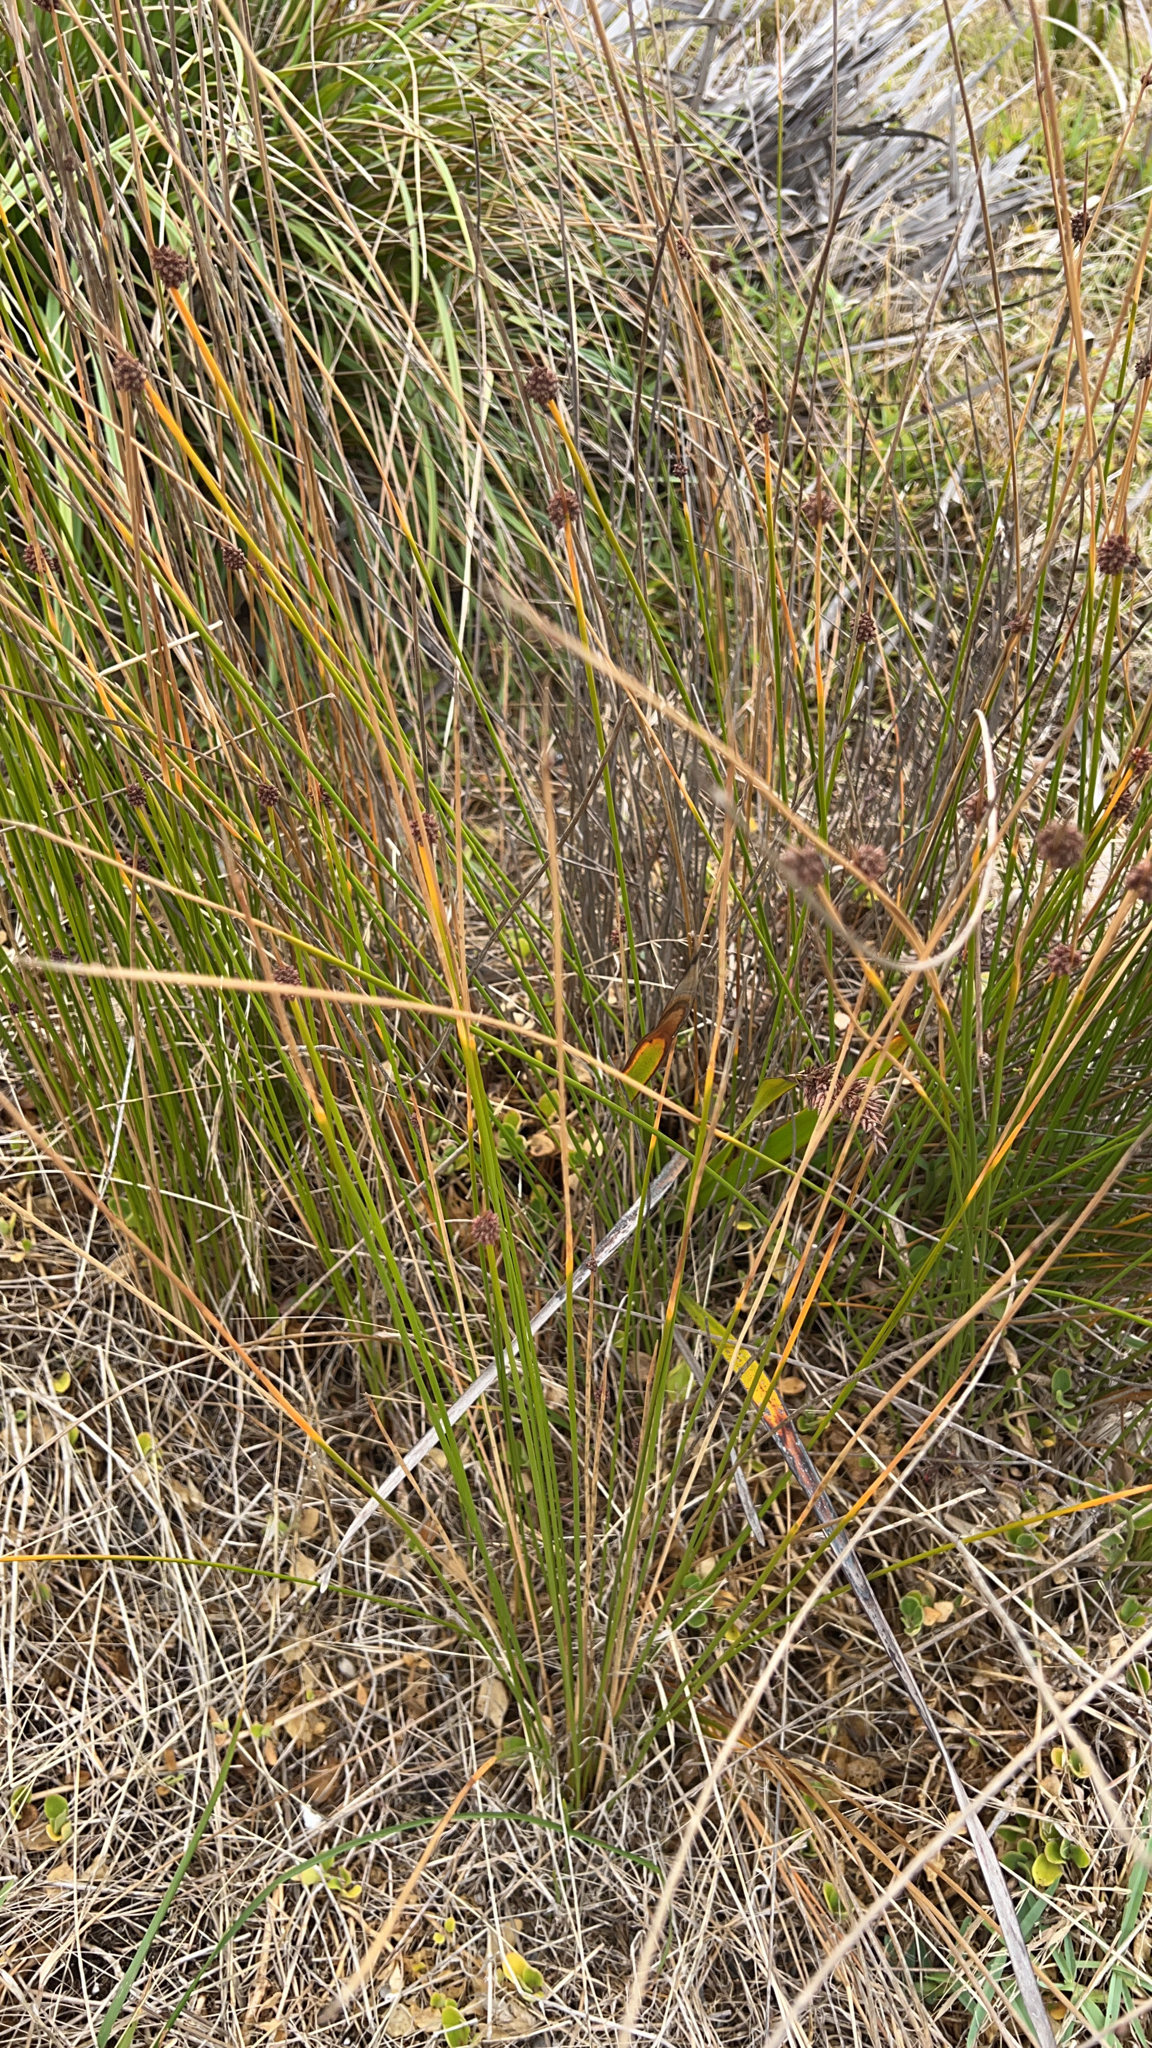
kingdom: Plantae
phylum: Tracheophyta
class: Liliopsida
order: Poales
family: Cyperaceae
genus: Ficinia
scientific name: Ficinia nodosa
